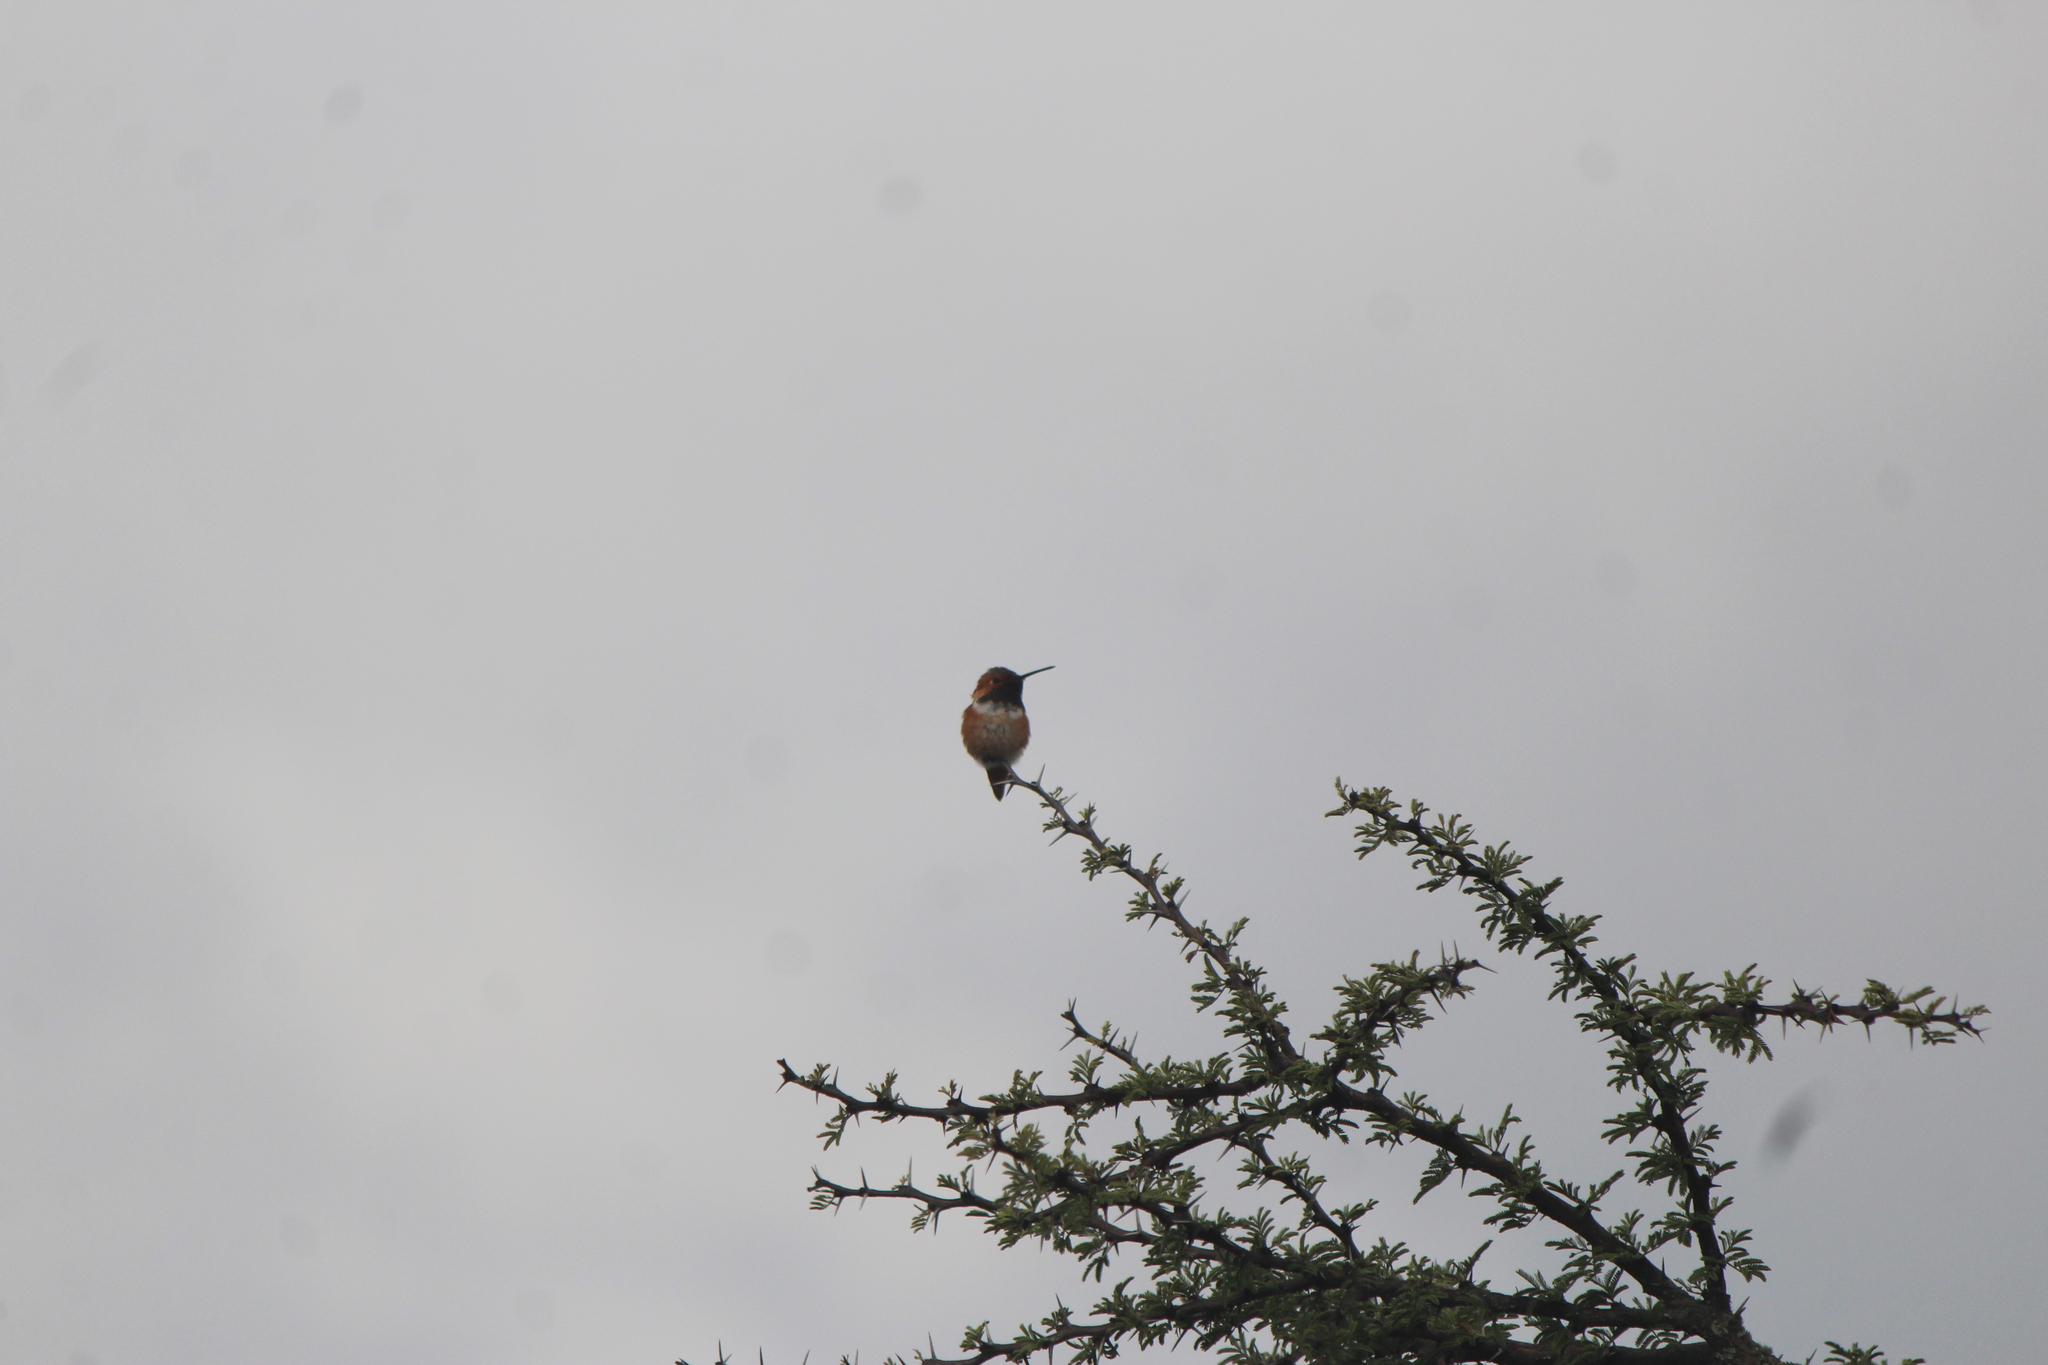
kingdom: Animalia
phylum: Chordata
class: Aves
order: Apodiformes
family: Trochilidae
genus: Selasphorus
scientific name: Selasphorus rufus
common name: Rufous hummingbird
